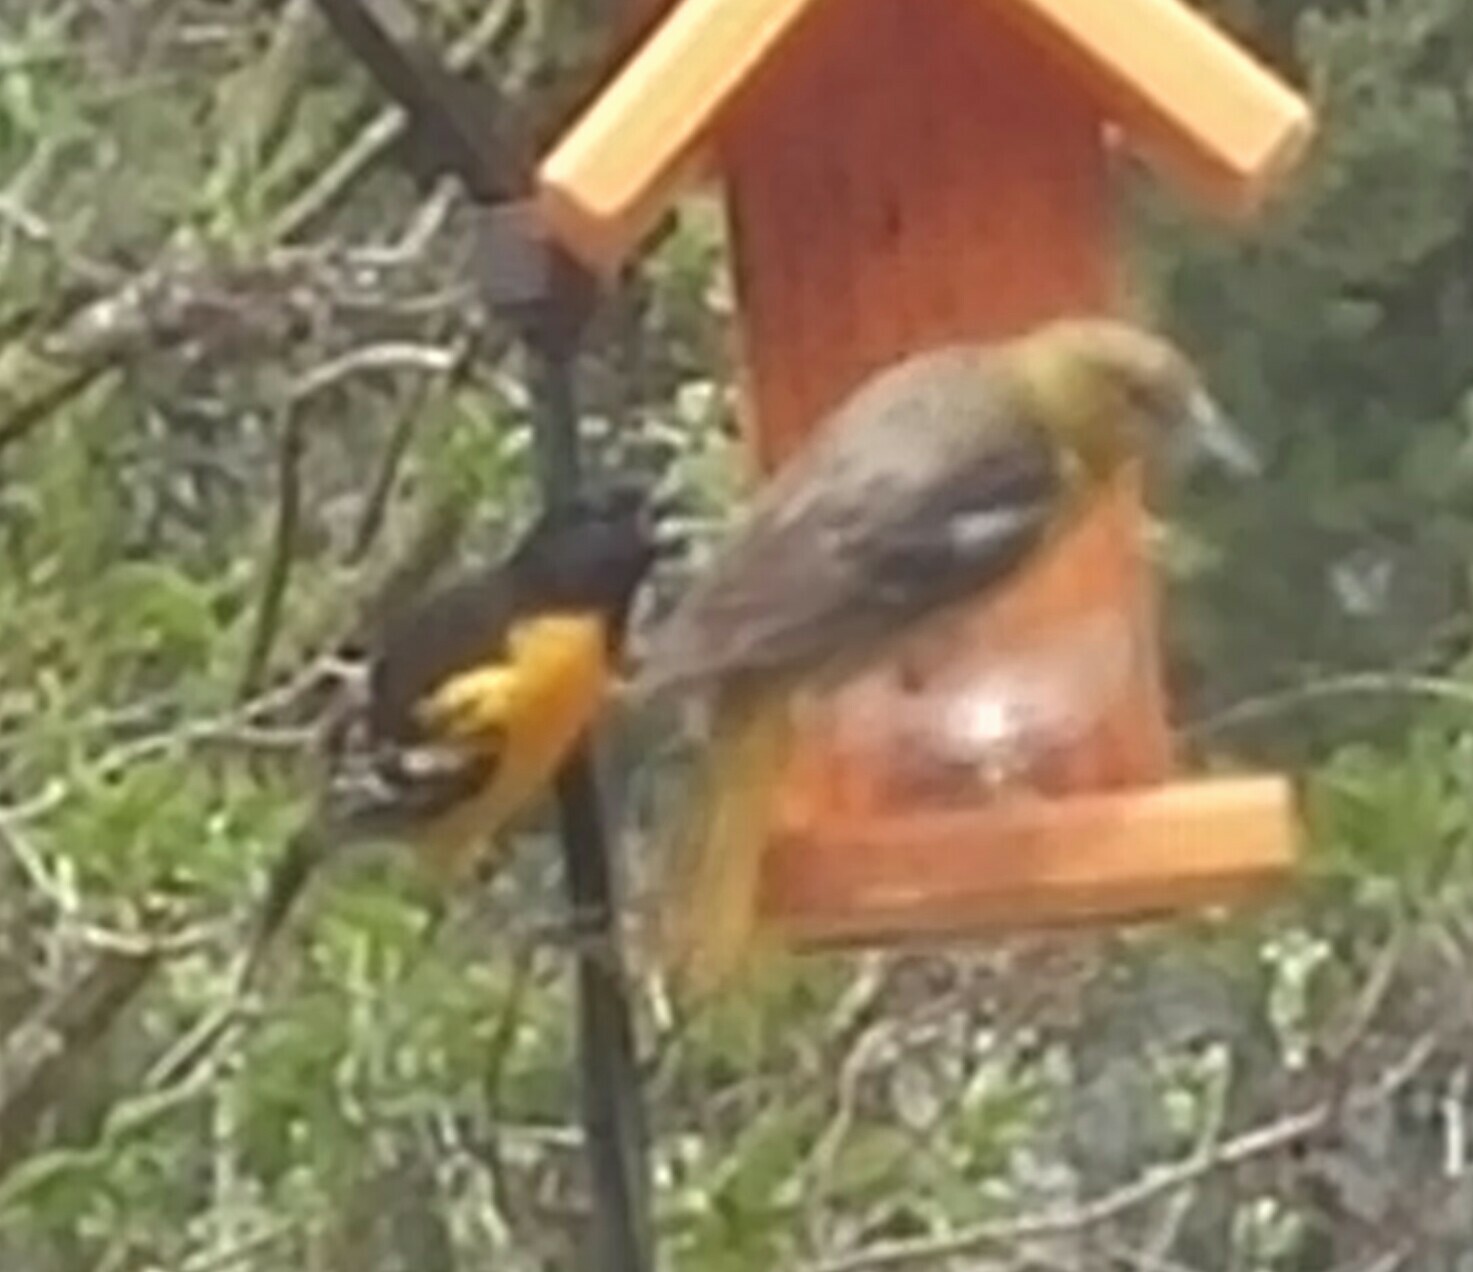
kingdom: Animalia
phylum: Chordata
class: Aves
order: Passeriformes
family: Icteridae
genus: Icterus
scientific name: Icterus galbula
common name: Baltimore oriole
